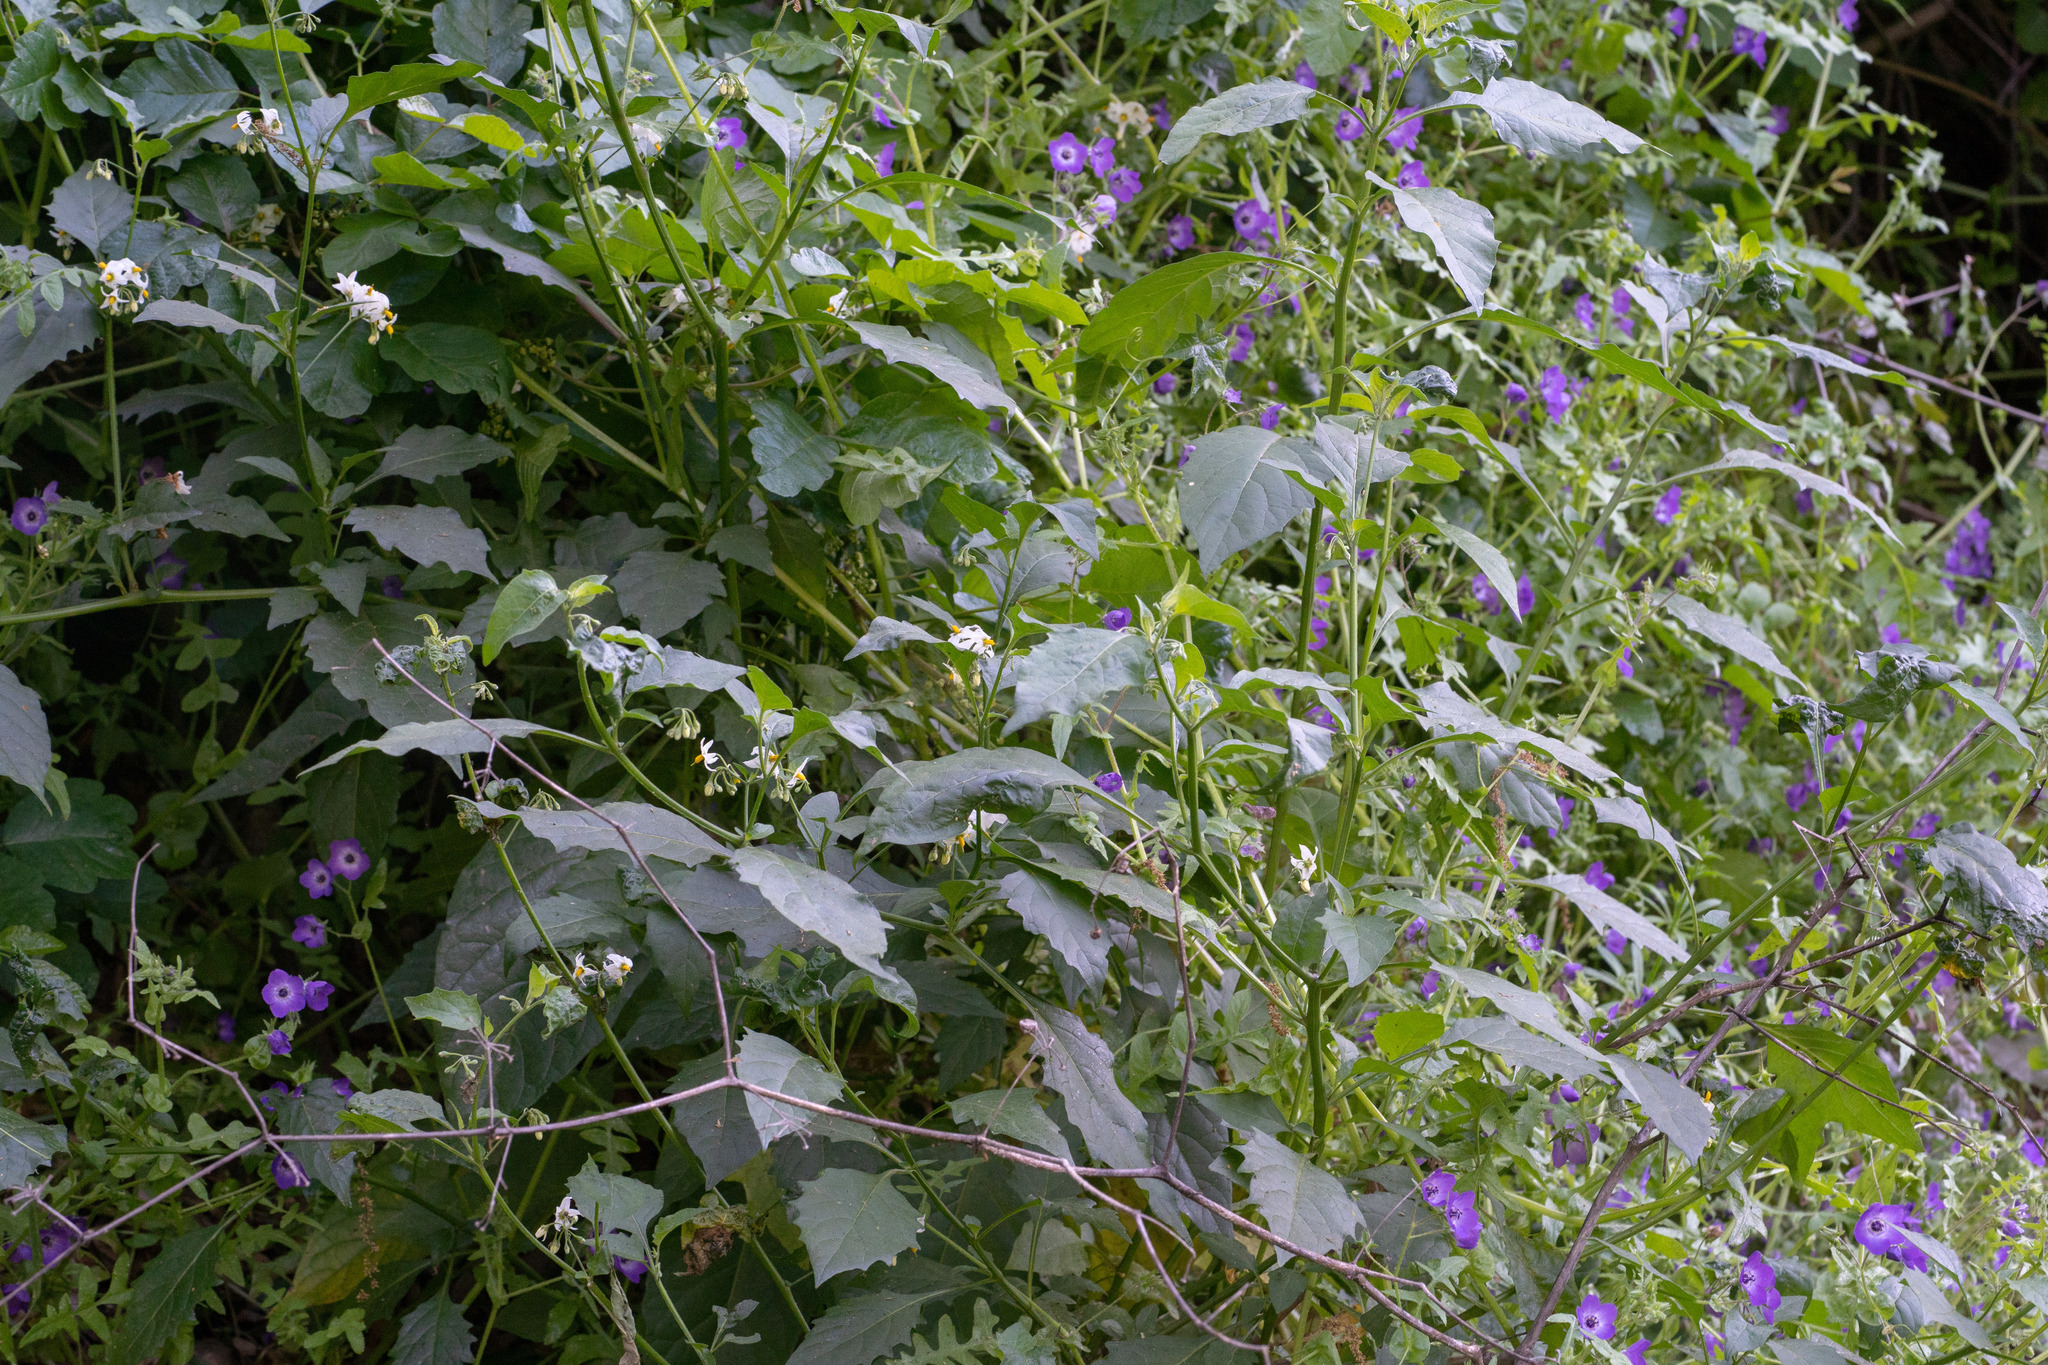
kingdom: Plantae
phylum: Tracheophyta
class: Magnoliopsida
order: Solanales
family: Solanaceae
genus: Solanum
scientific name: Solanum douglasii
